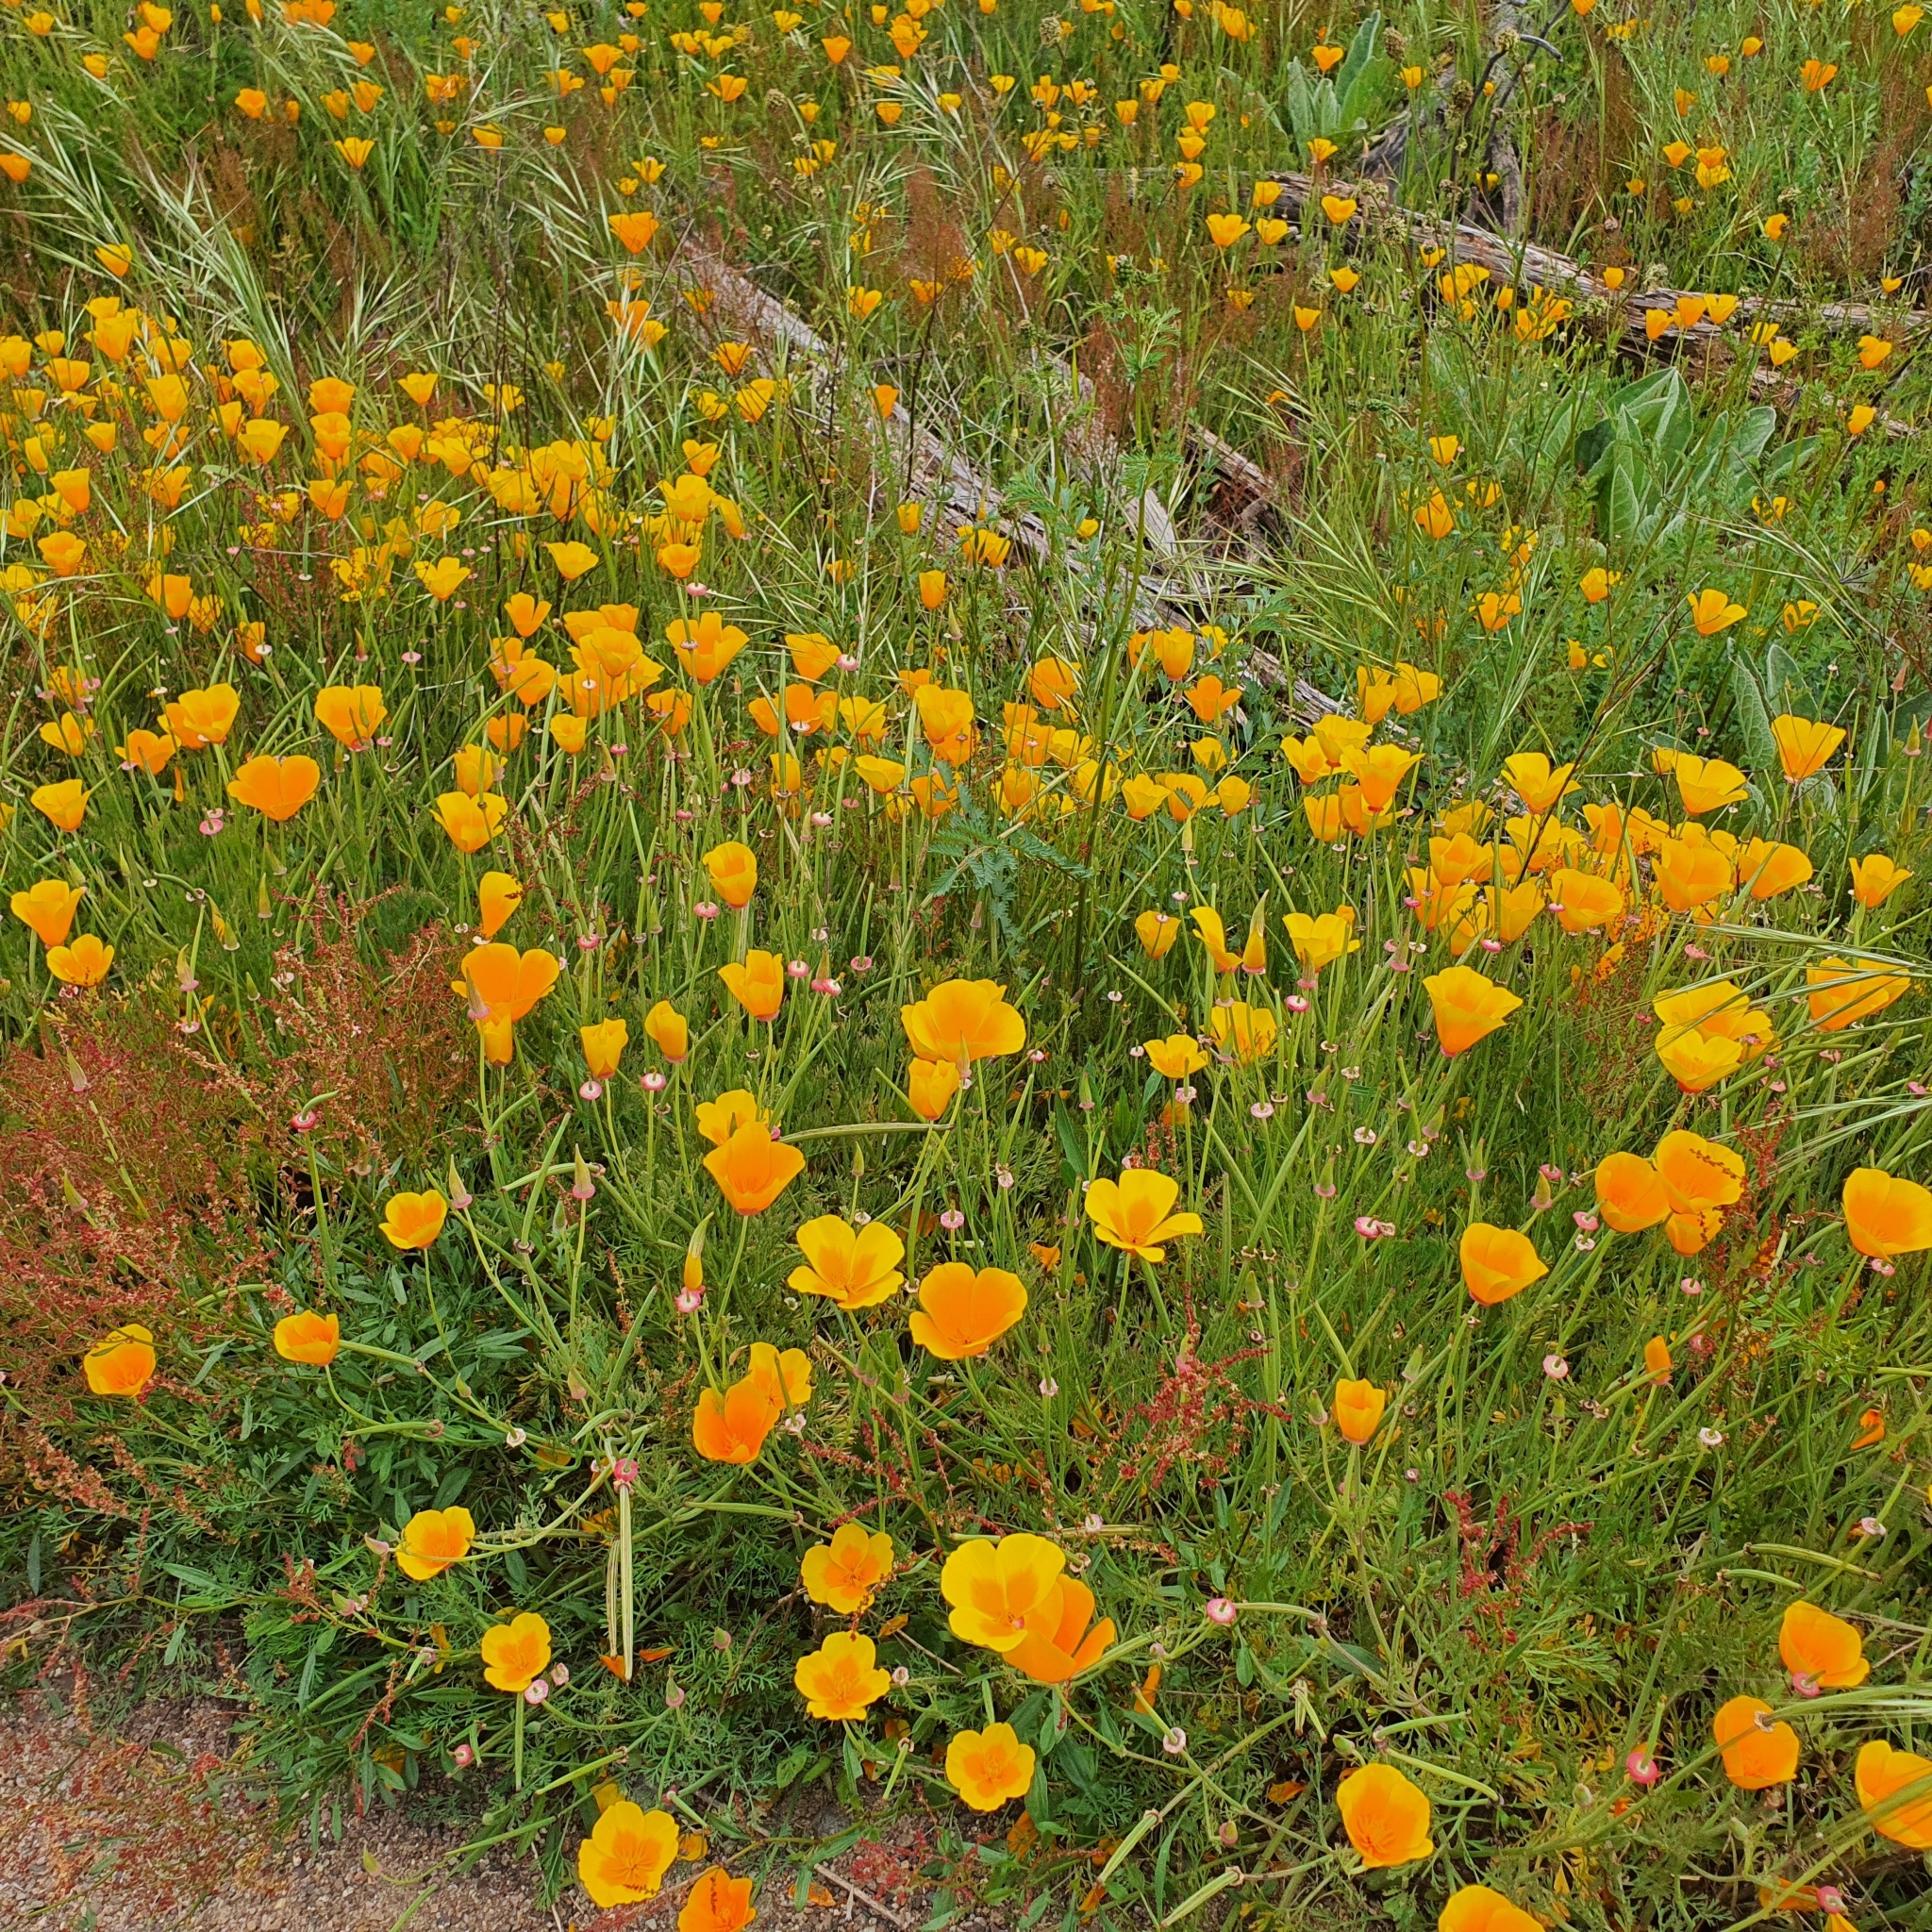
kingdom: Plantae
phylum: Tracheophyta
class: Magnoliopsida
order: Ranunculales
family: Papaveraceae
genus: Eschscholzia
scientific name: Eschscholzia californica
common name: California poppy
